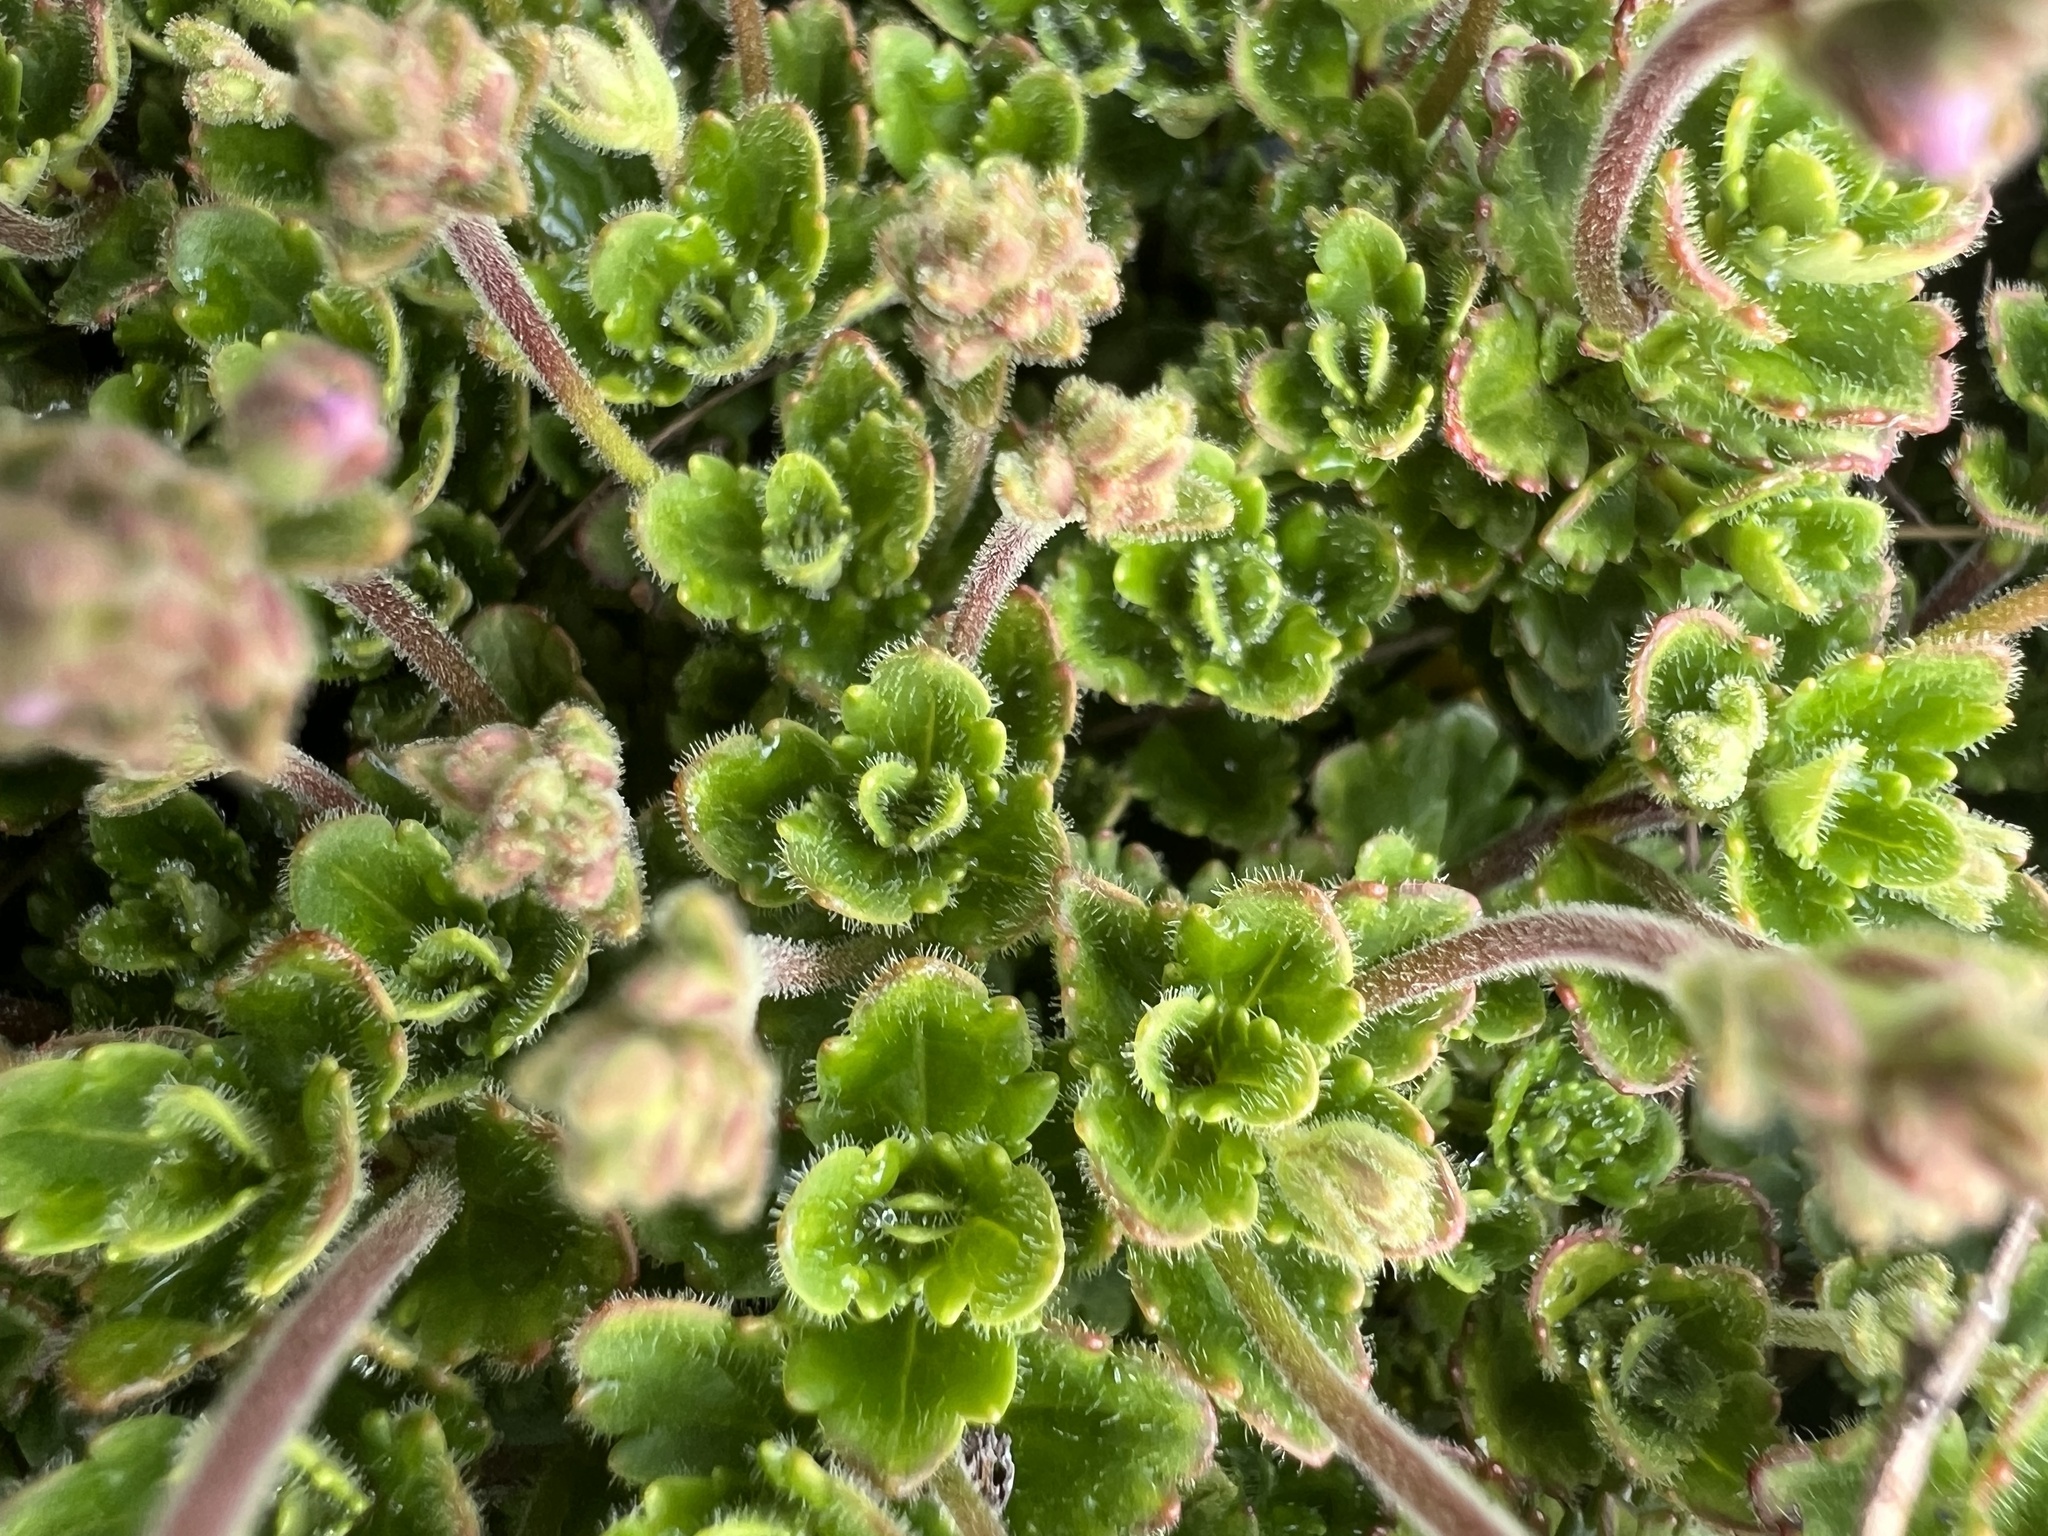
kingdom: Plantae
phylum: Tracheophyta
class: Magnoliopsida
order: Lamiales
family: Plantaginaceae
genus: Veronica
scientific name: Veronica hookeriana
